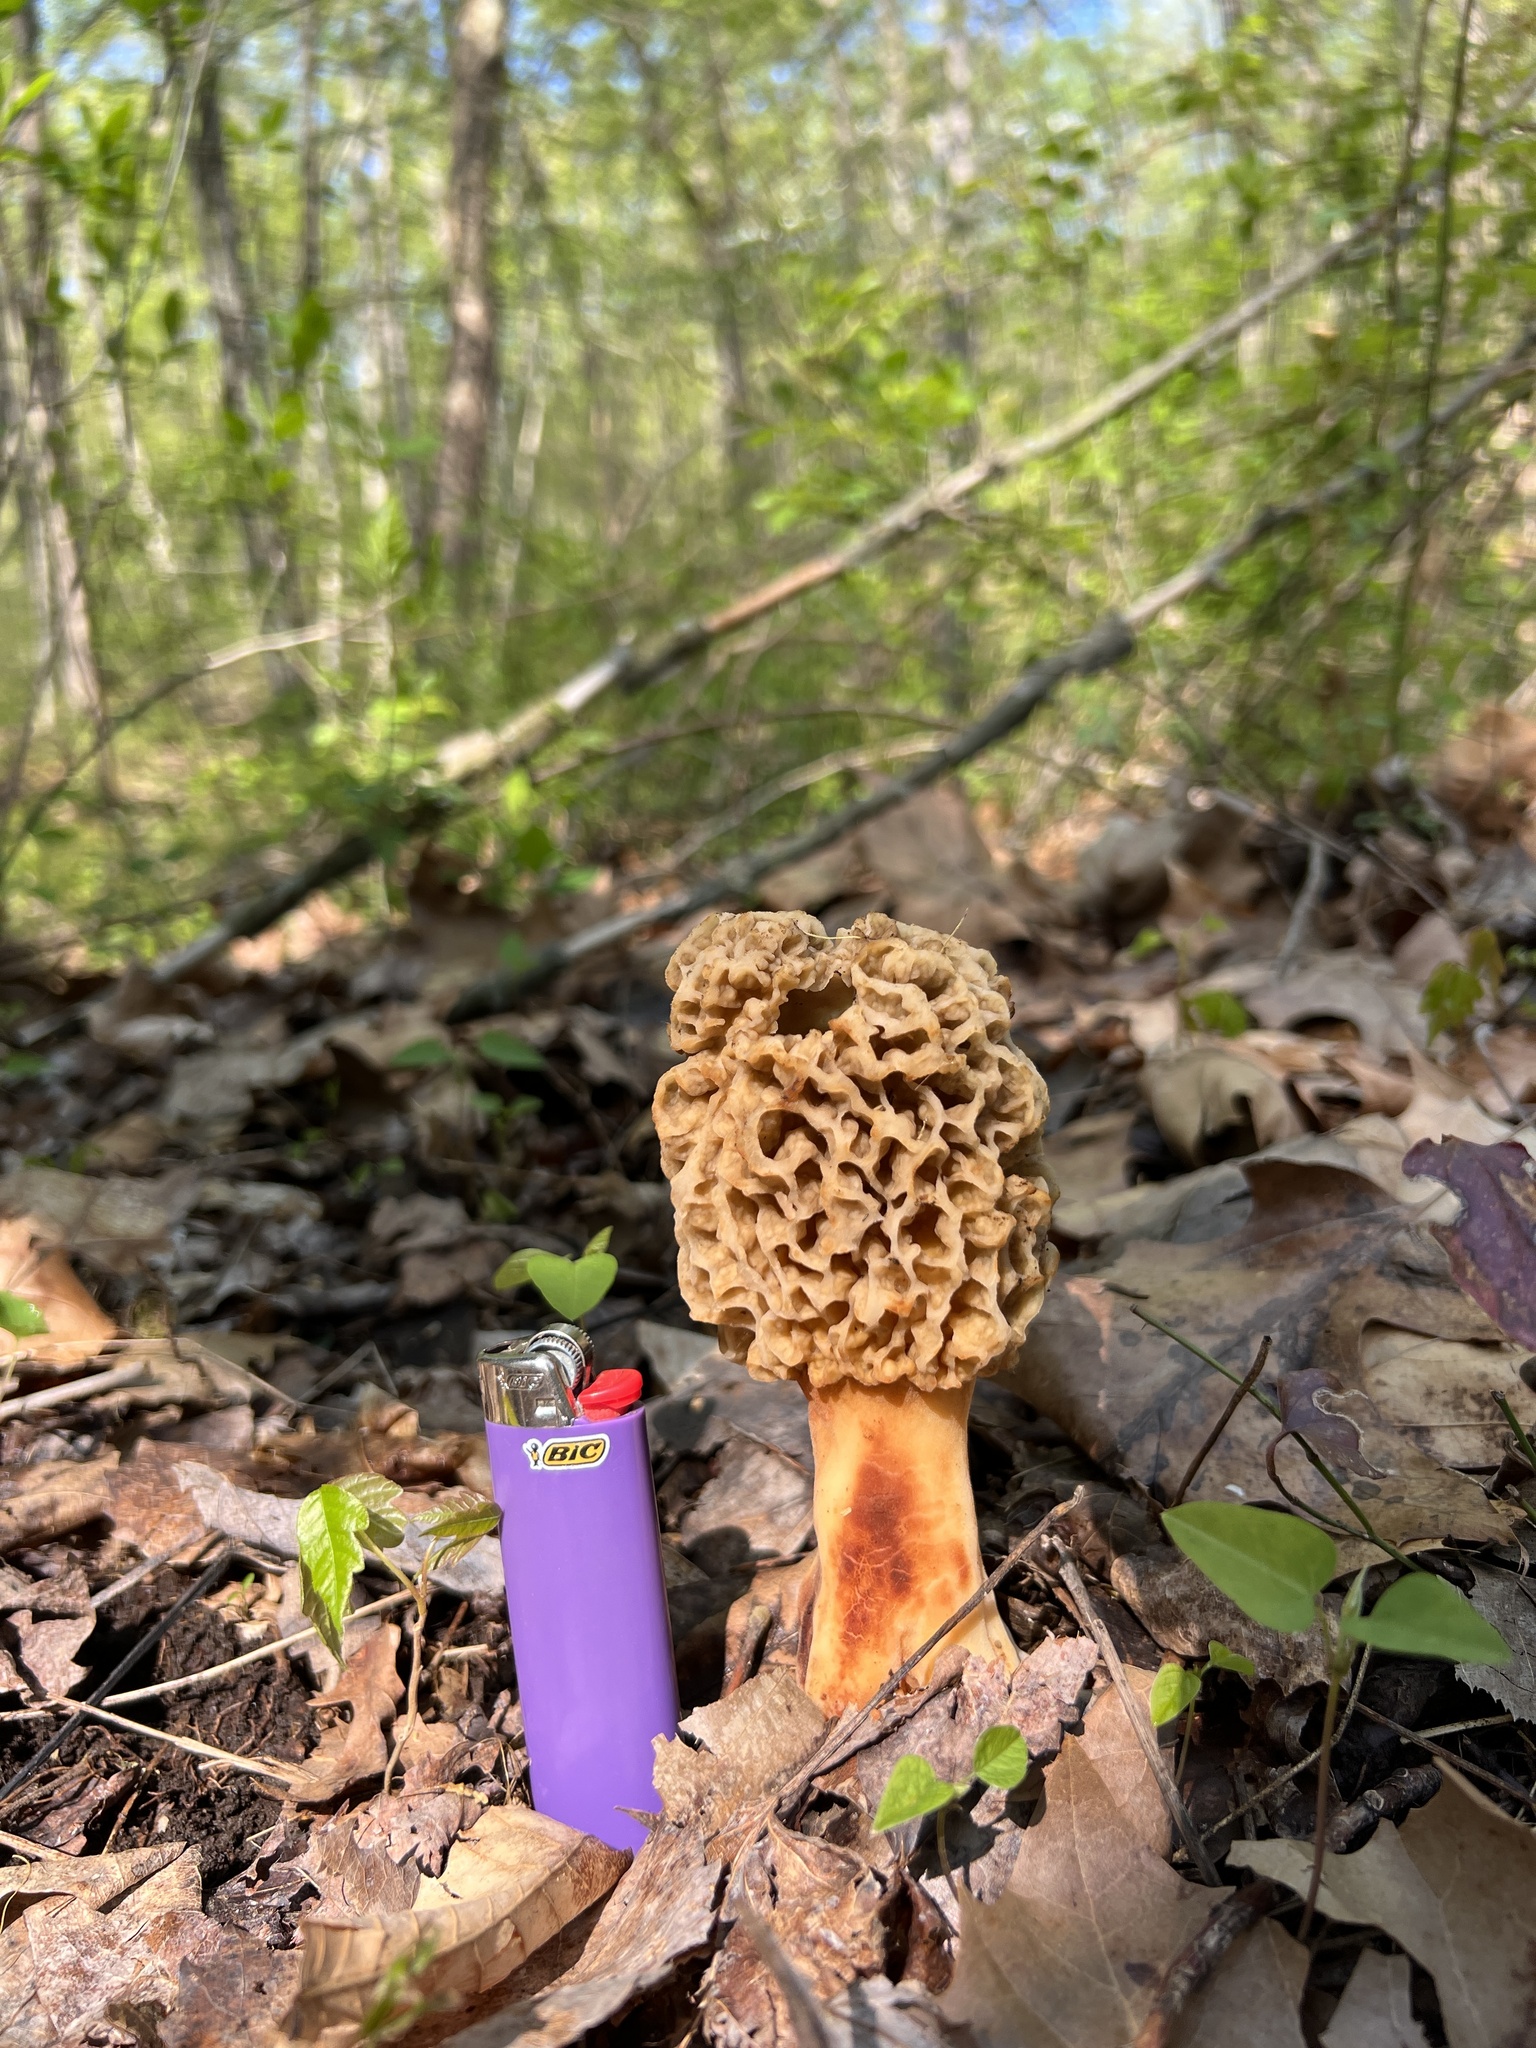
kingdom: Fungi
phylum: Ascomycota
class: Pezizomycetes
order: Pezizales
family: Morchellaceae
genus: Morchella
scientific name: Morchella americana
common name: White morel
